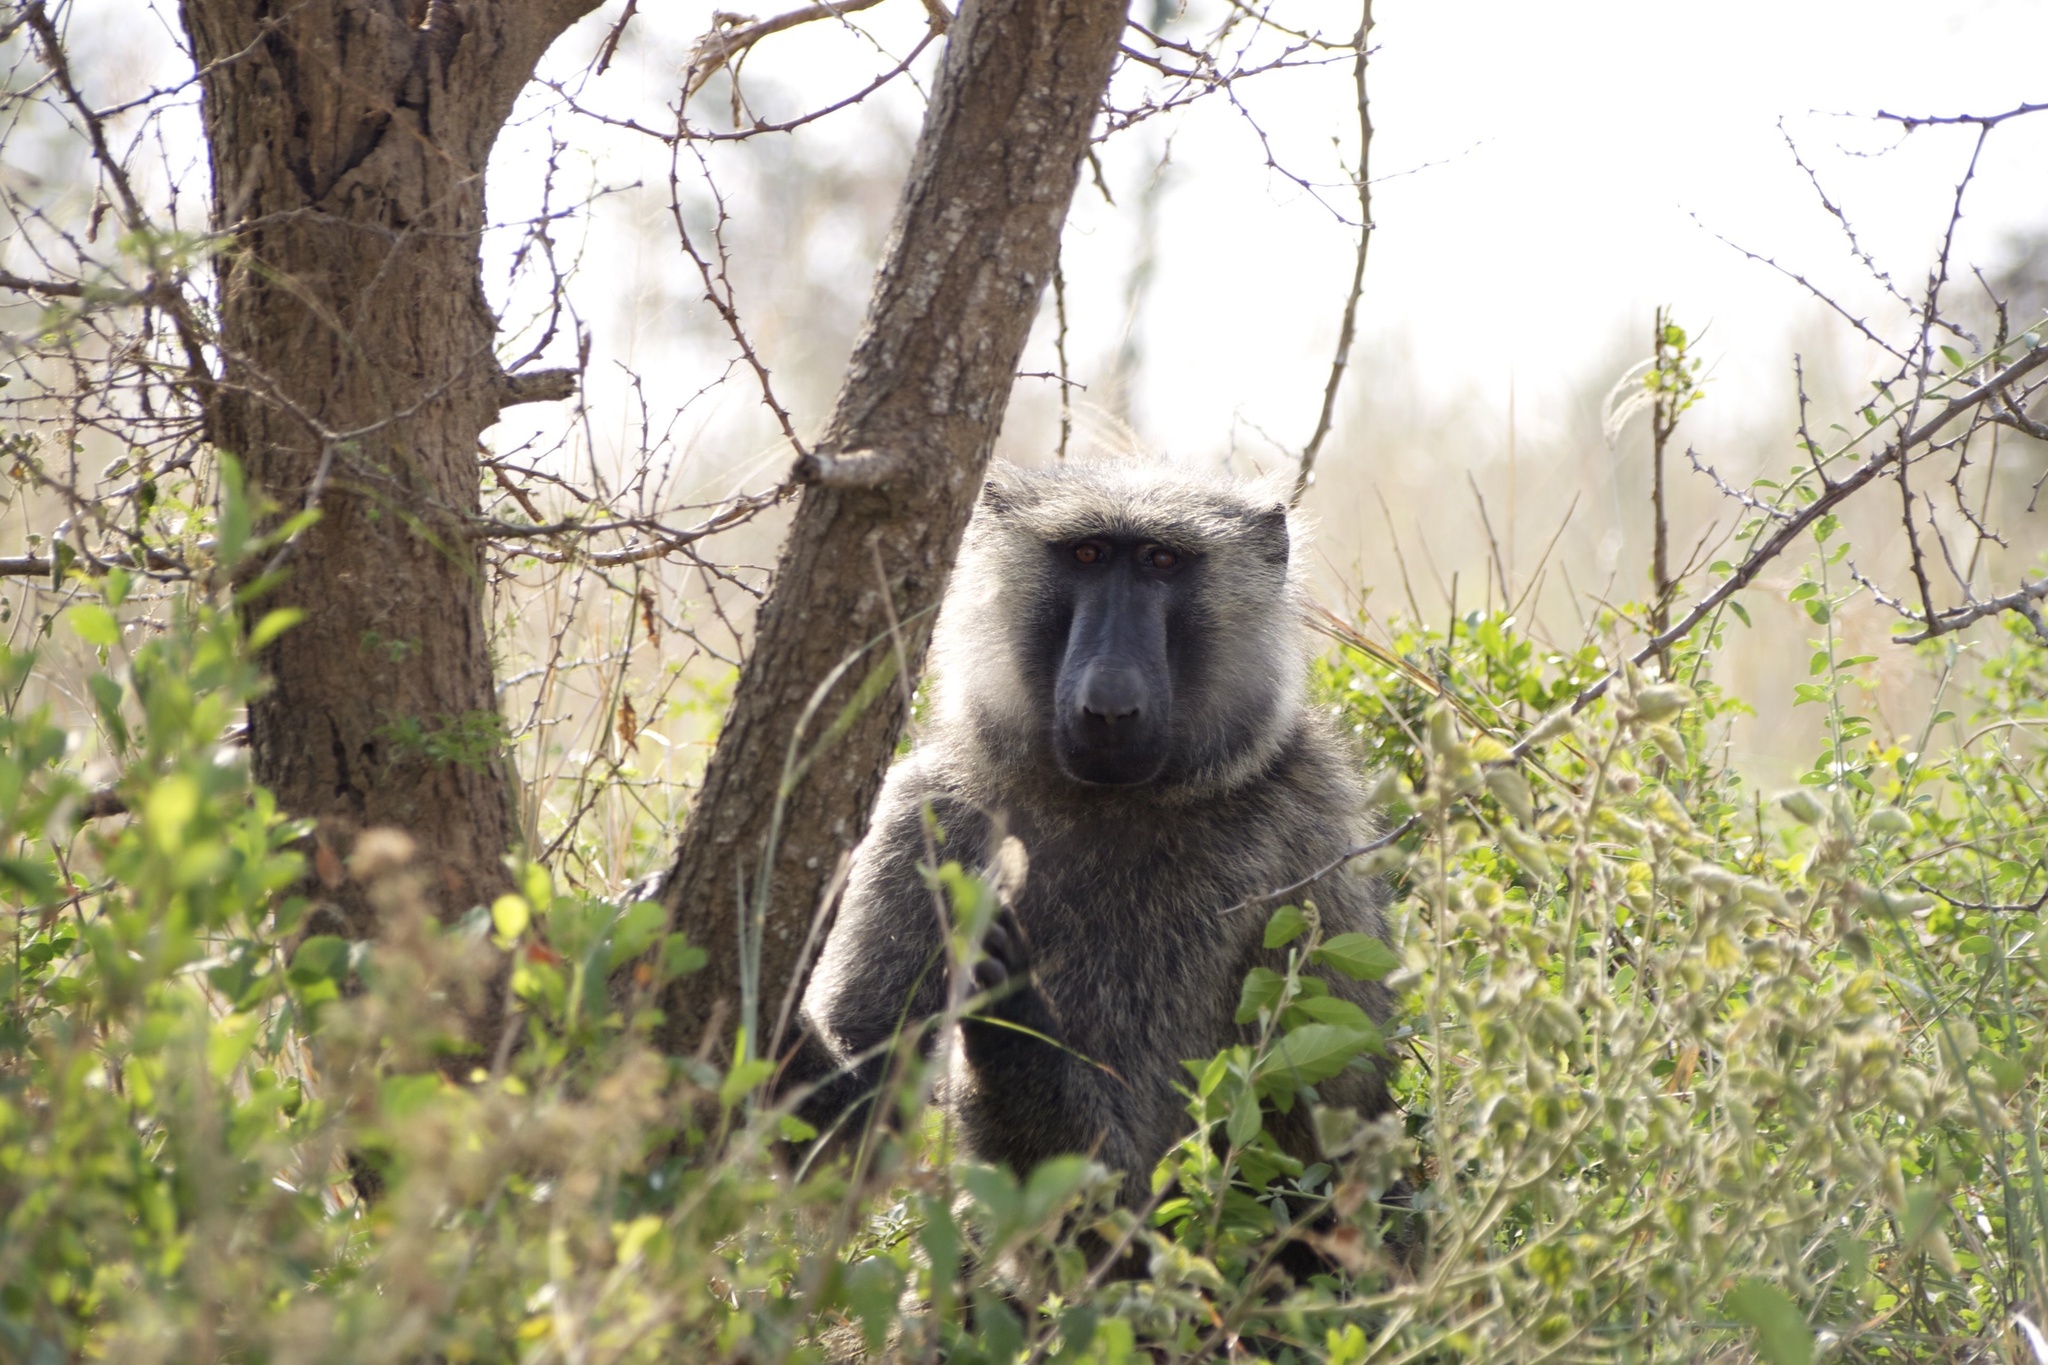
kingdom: Animalia
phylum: Chordata
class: Mammalia
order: Primates
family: Cercopithecidae
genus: Papio
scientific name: Papio anubis
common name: Olive baboon
